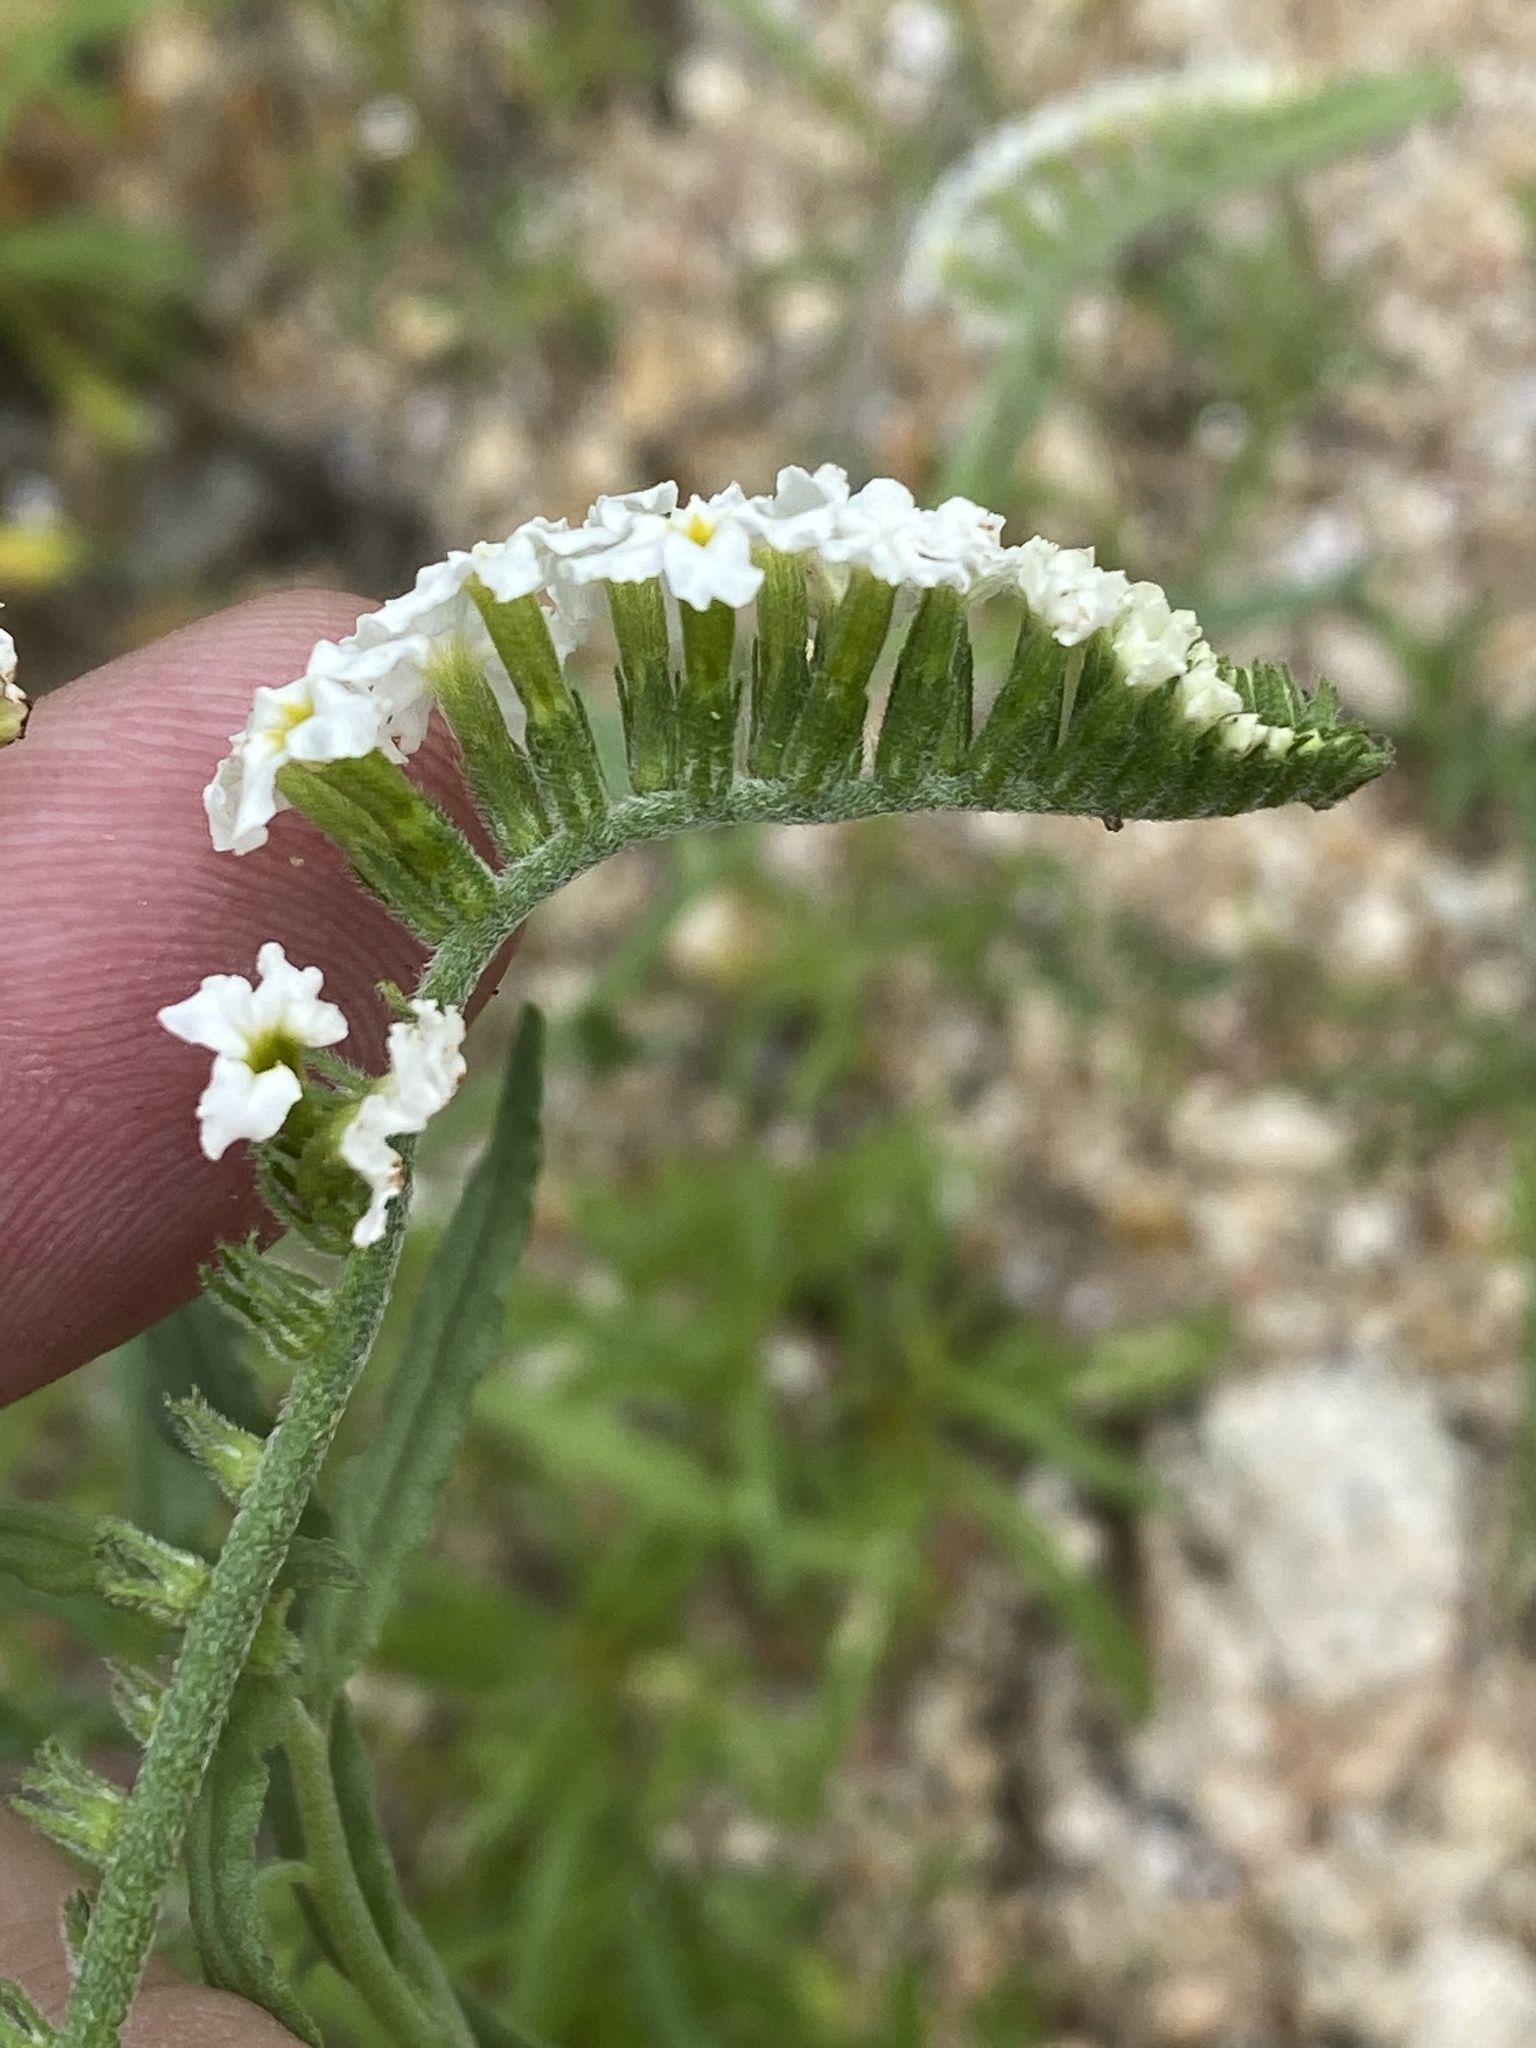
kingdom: Plantae
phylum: Tracheophyta
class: Magnoliopsida
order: Boraginales
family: Heliotropiaceae
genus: Heliotropium
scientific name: Heliotropium steudneri
